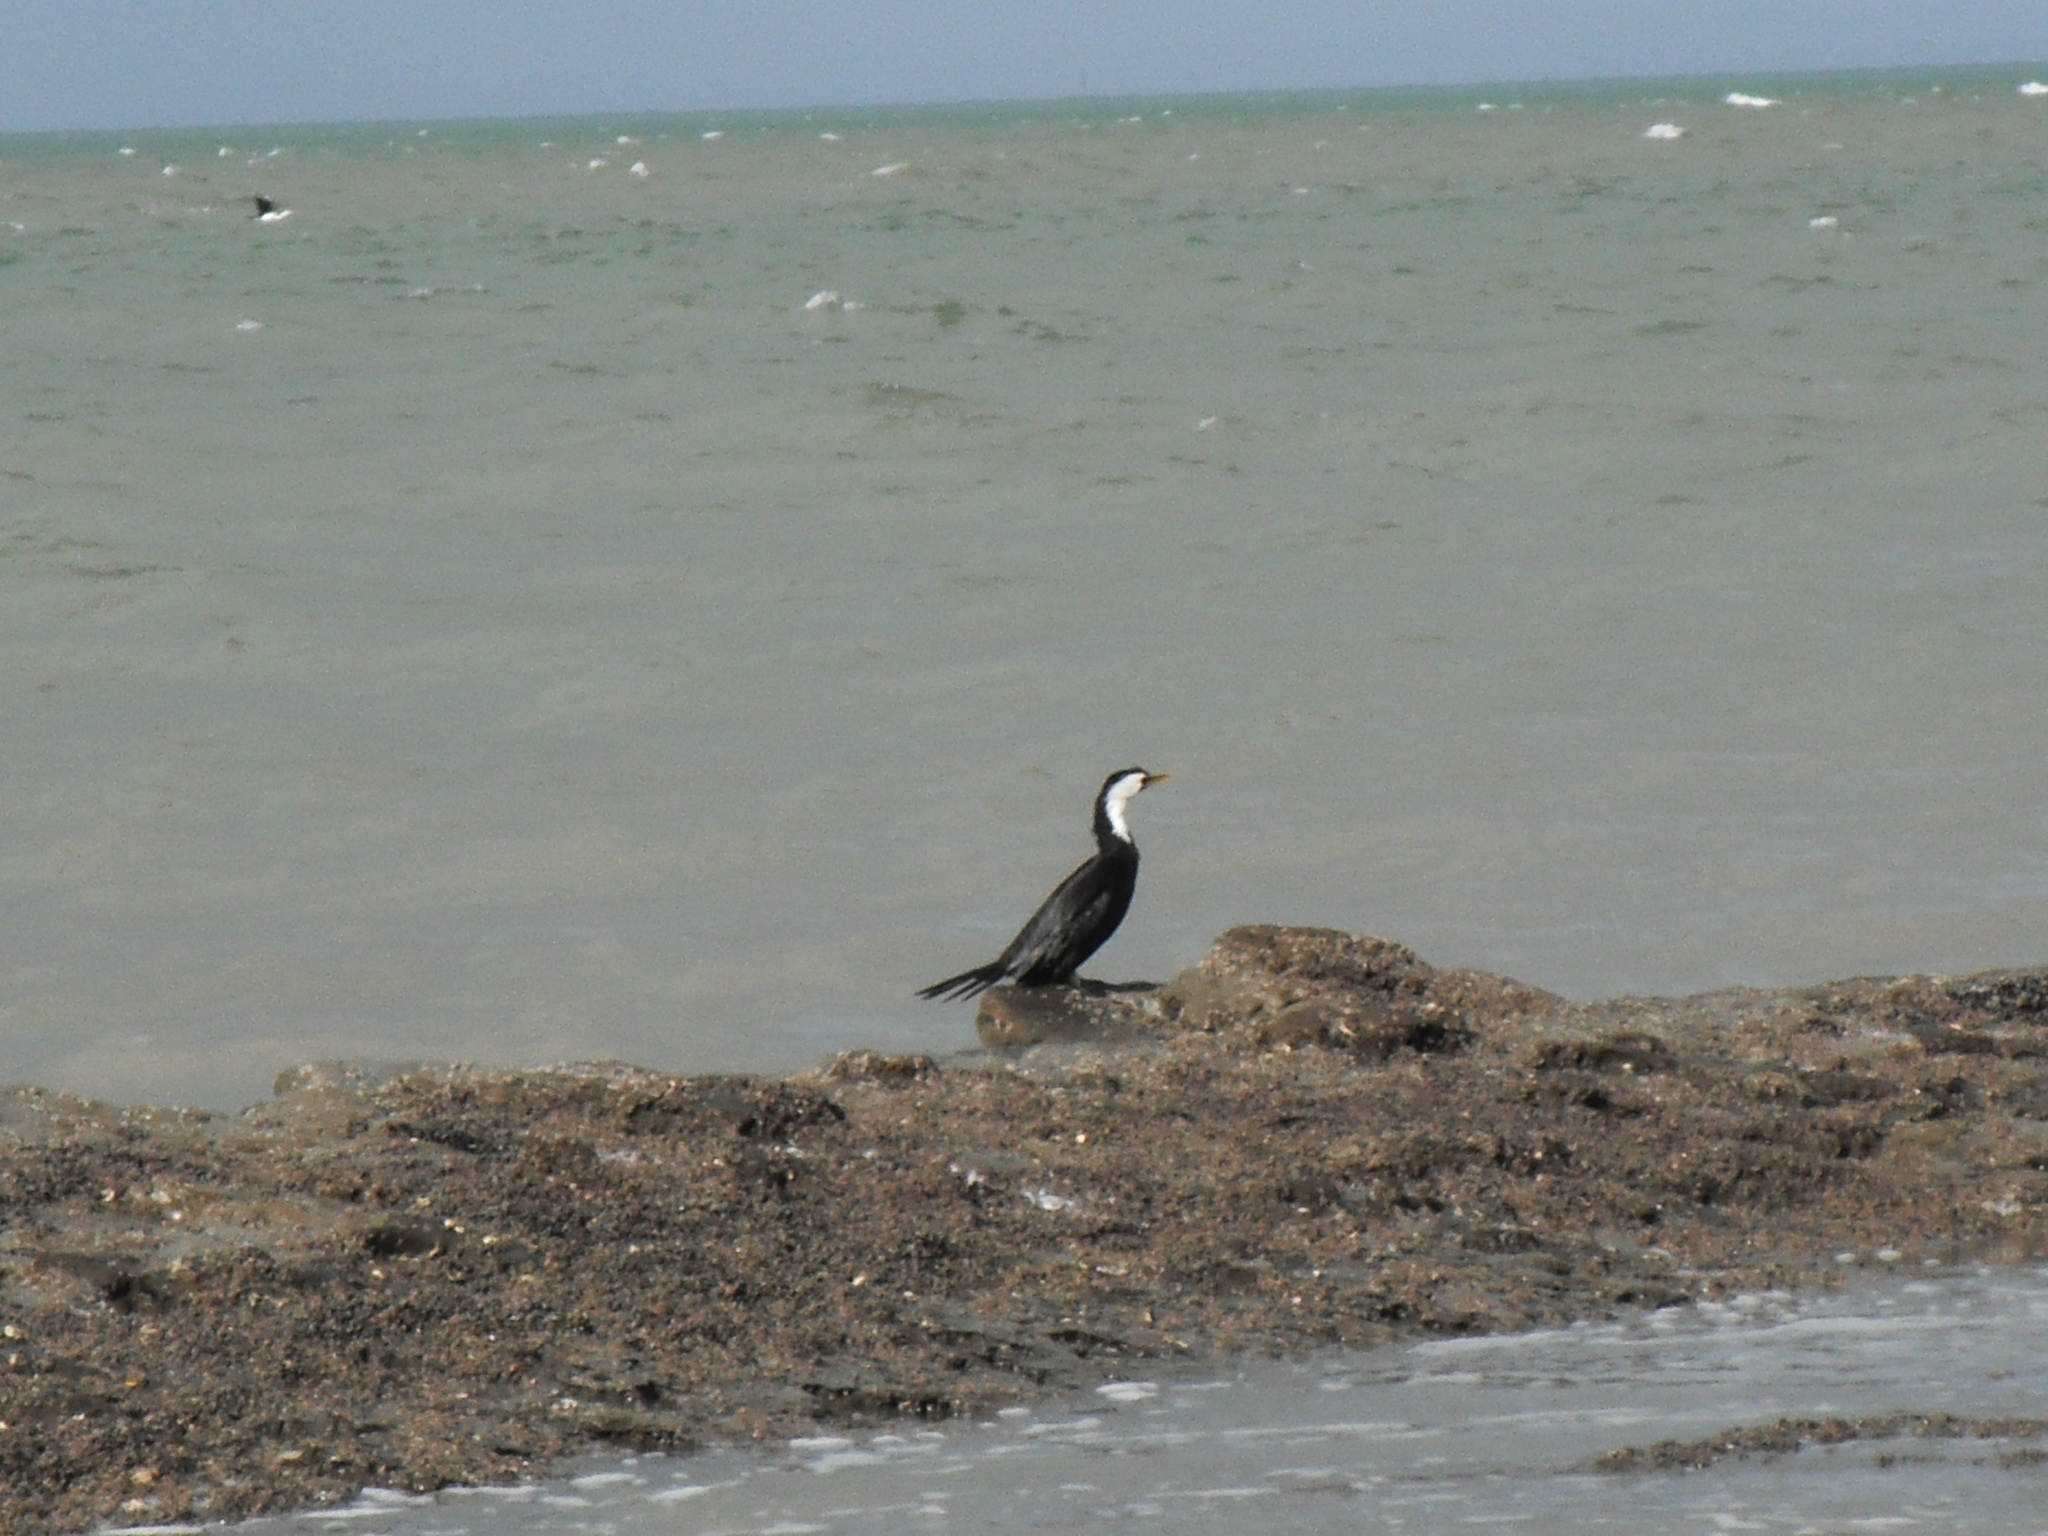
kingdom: Animalia
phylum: Chordata
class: Aves
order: Suliformes
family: Phalacrocoracidae
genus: Microcarbo
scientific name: Microcarbo melanoleucos
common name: Little pied cormorant
